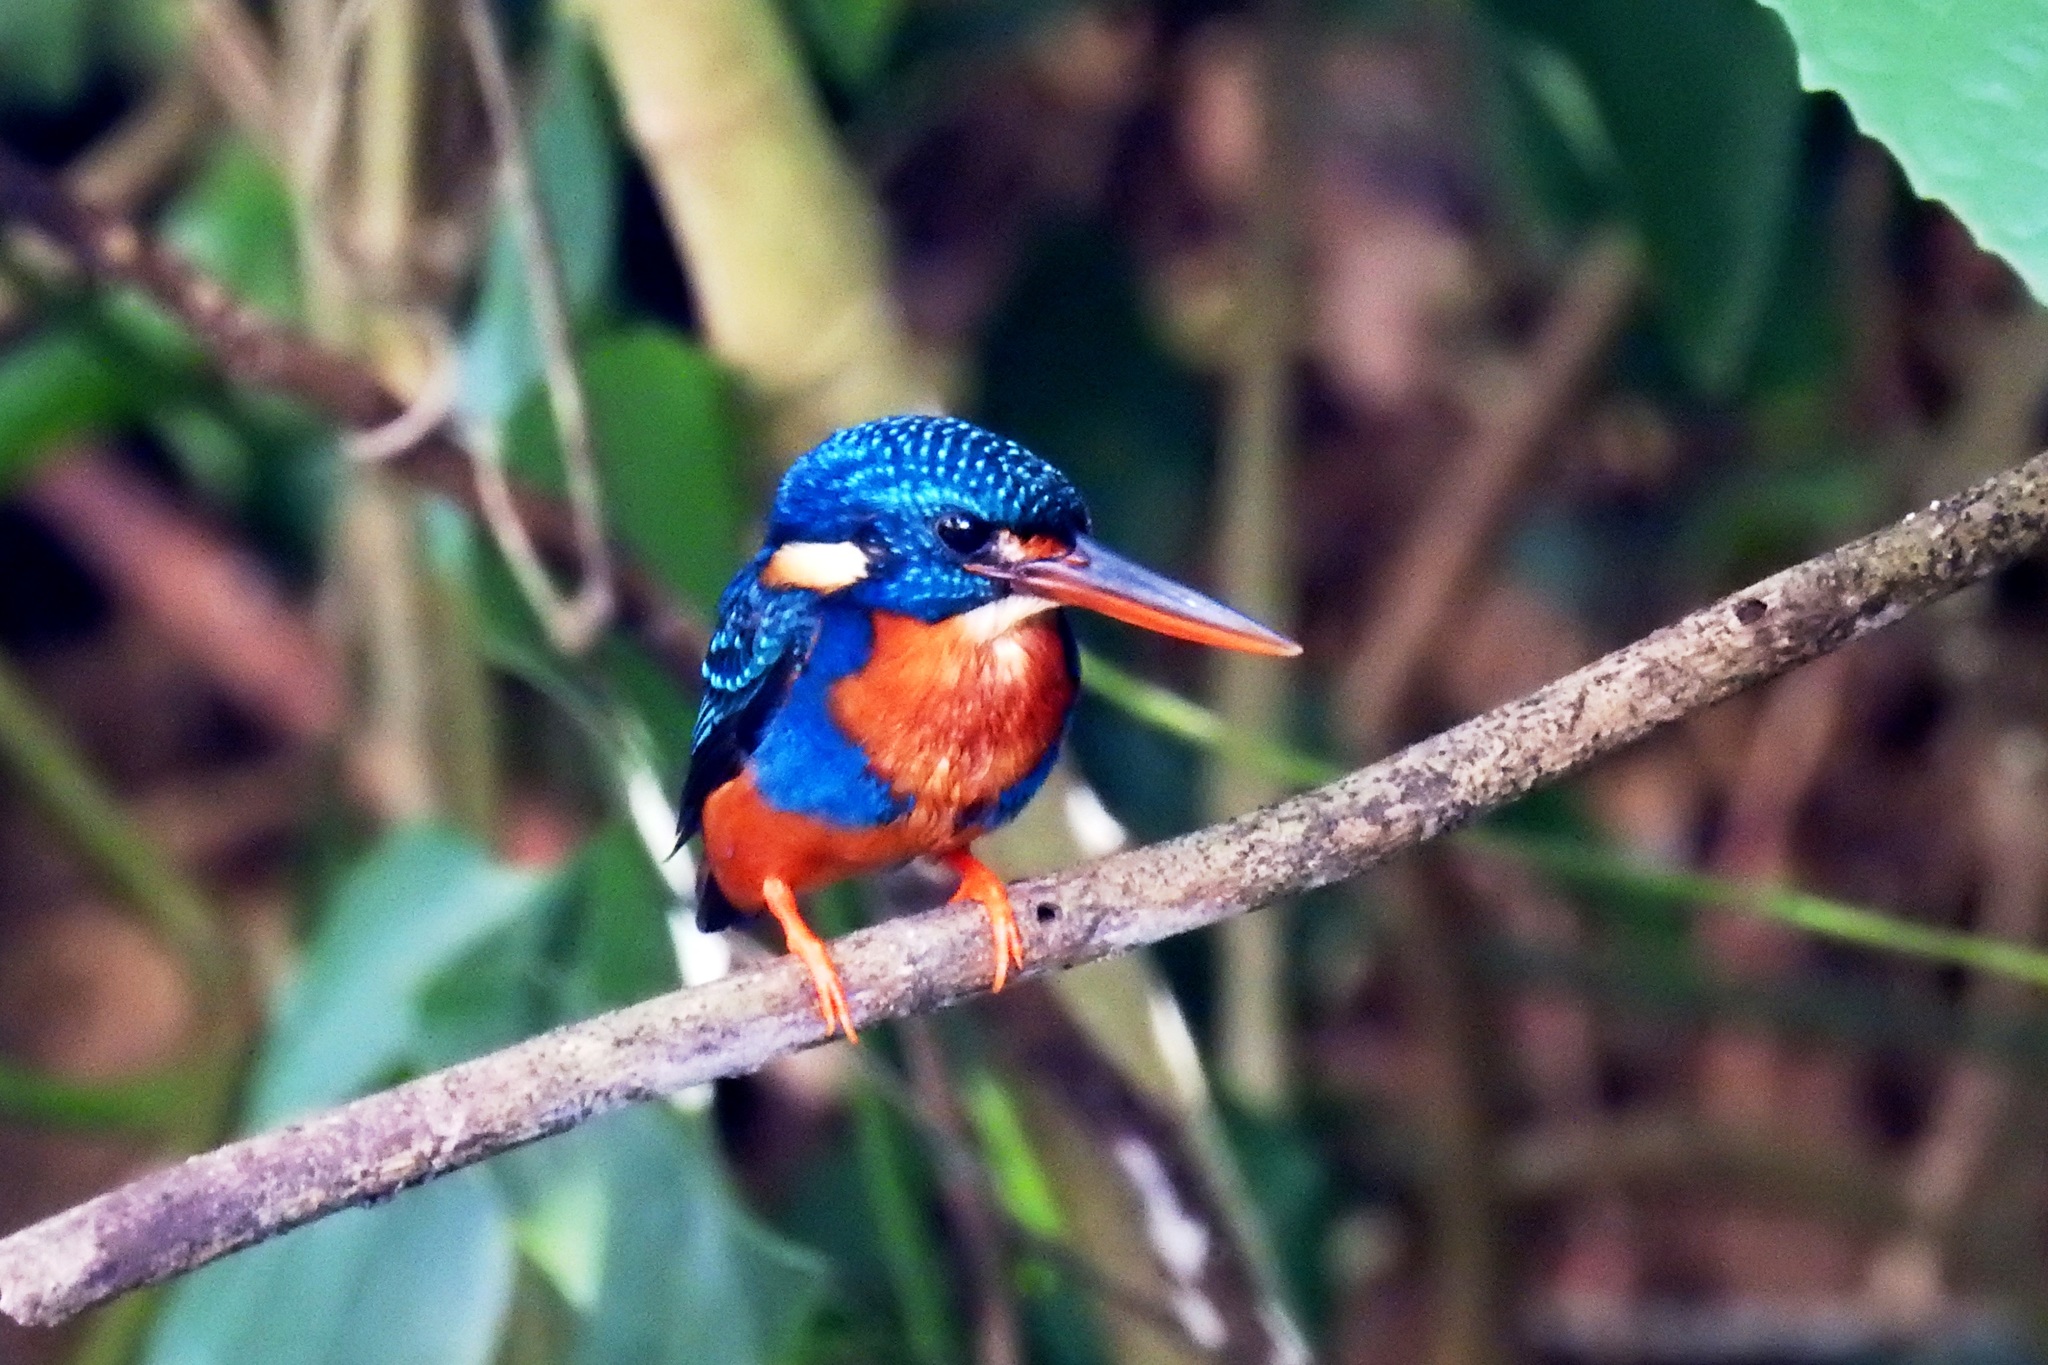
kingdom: Animalia
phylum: Chordata
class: Aves
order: Coraciiformes
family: Alcedinidae
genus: Ceyx
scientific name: Ceyx cyanopectus
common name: Indigo-banded kingfisher
